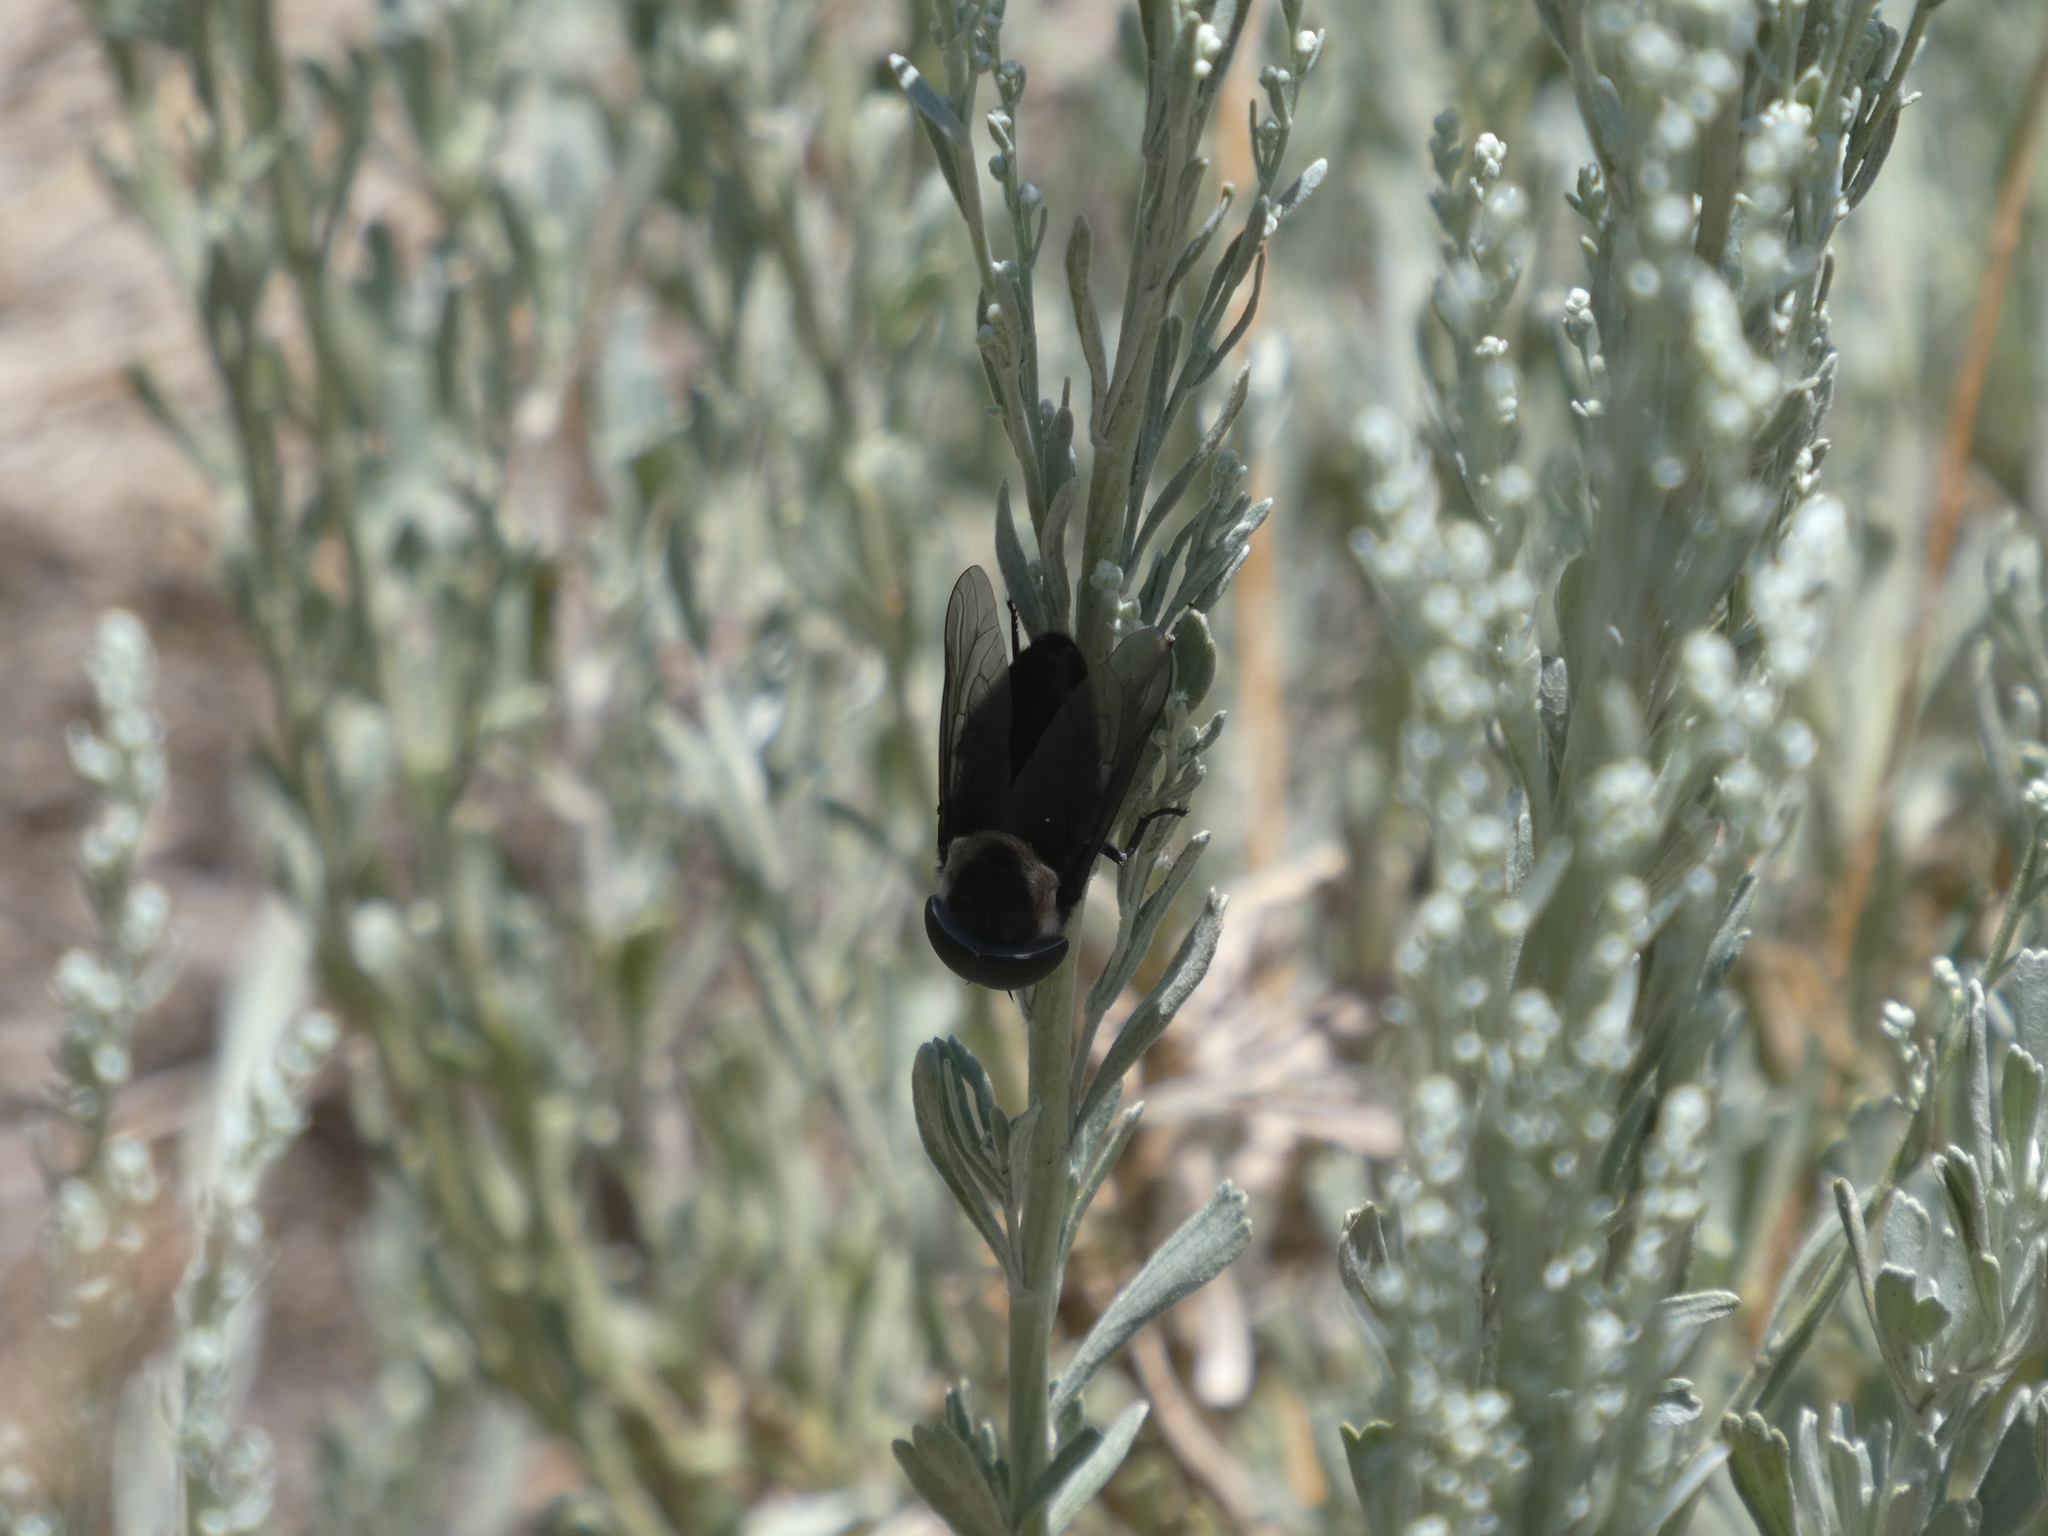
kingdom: Animalia
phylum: Arthropoda
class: Insecta
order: Diptera
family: Tabanidae
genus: Tabanus
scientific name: Tabanus punctifer
